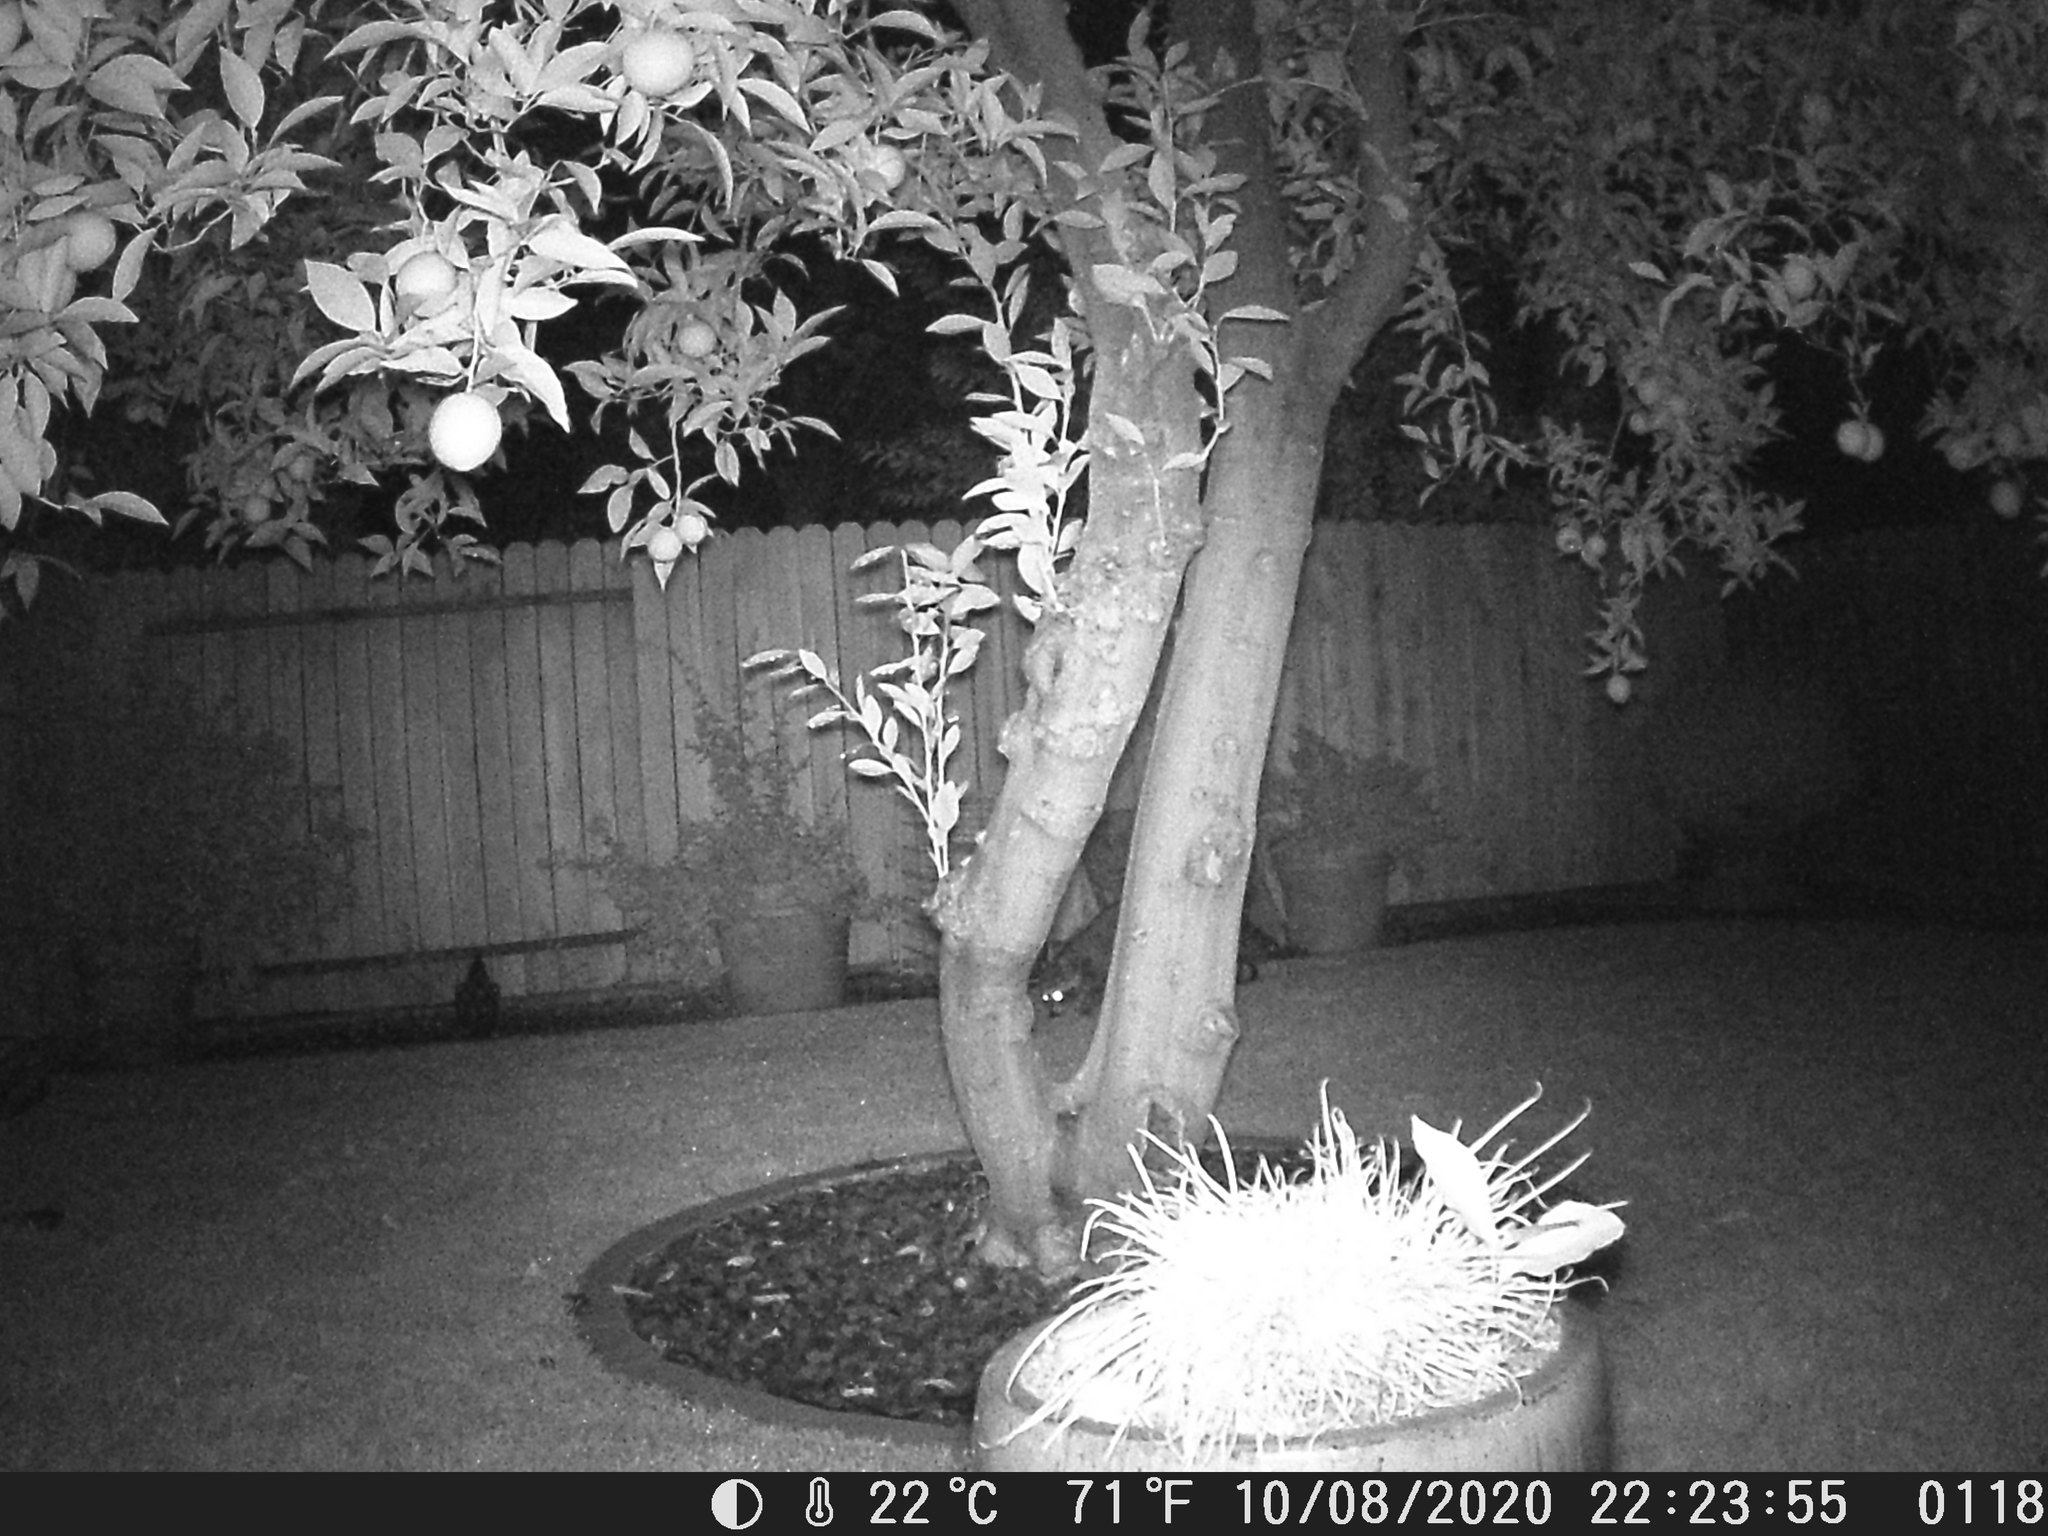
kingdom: Animalia
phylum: Chordata
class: Mammalia
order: Carnivora
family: Procyonidae
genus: Procyon
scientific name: Procyon lotor
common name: Raccoon
